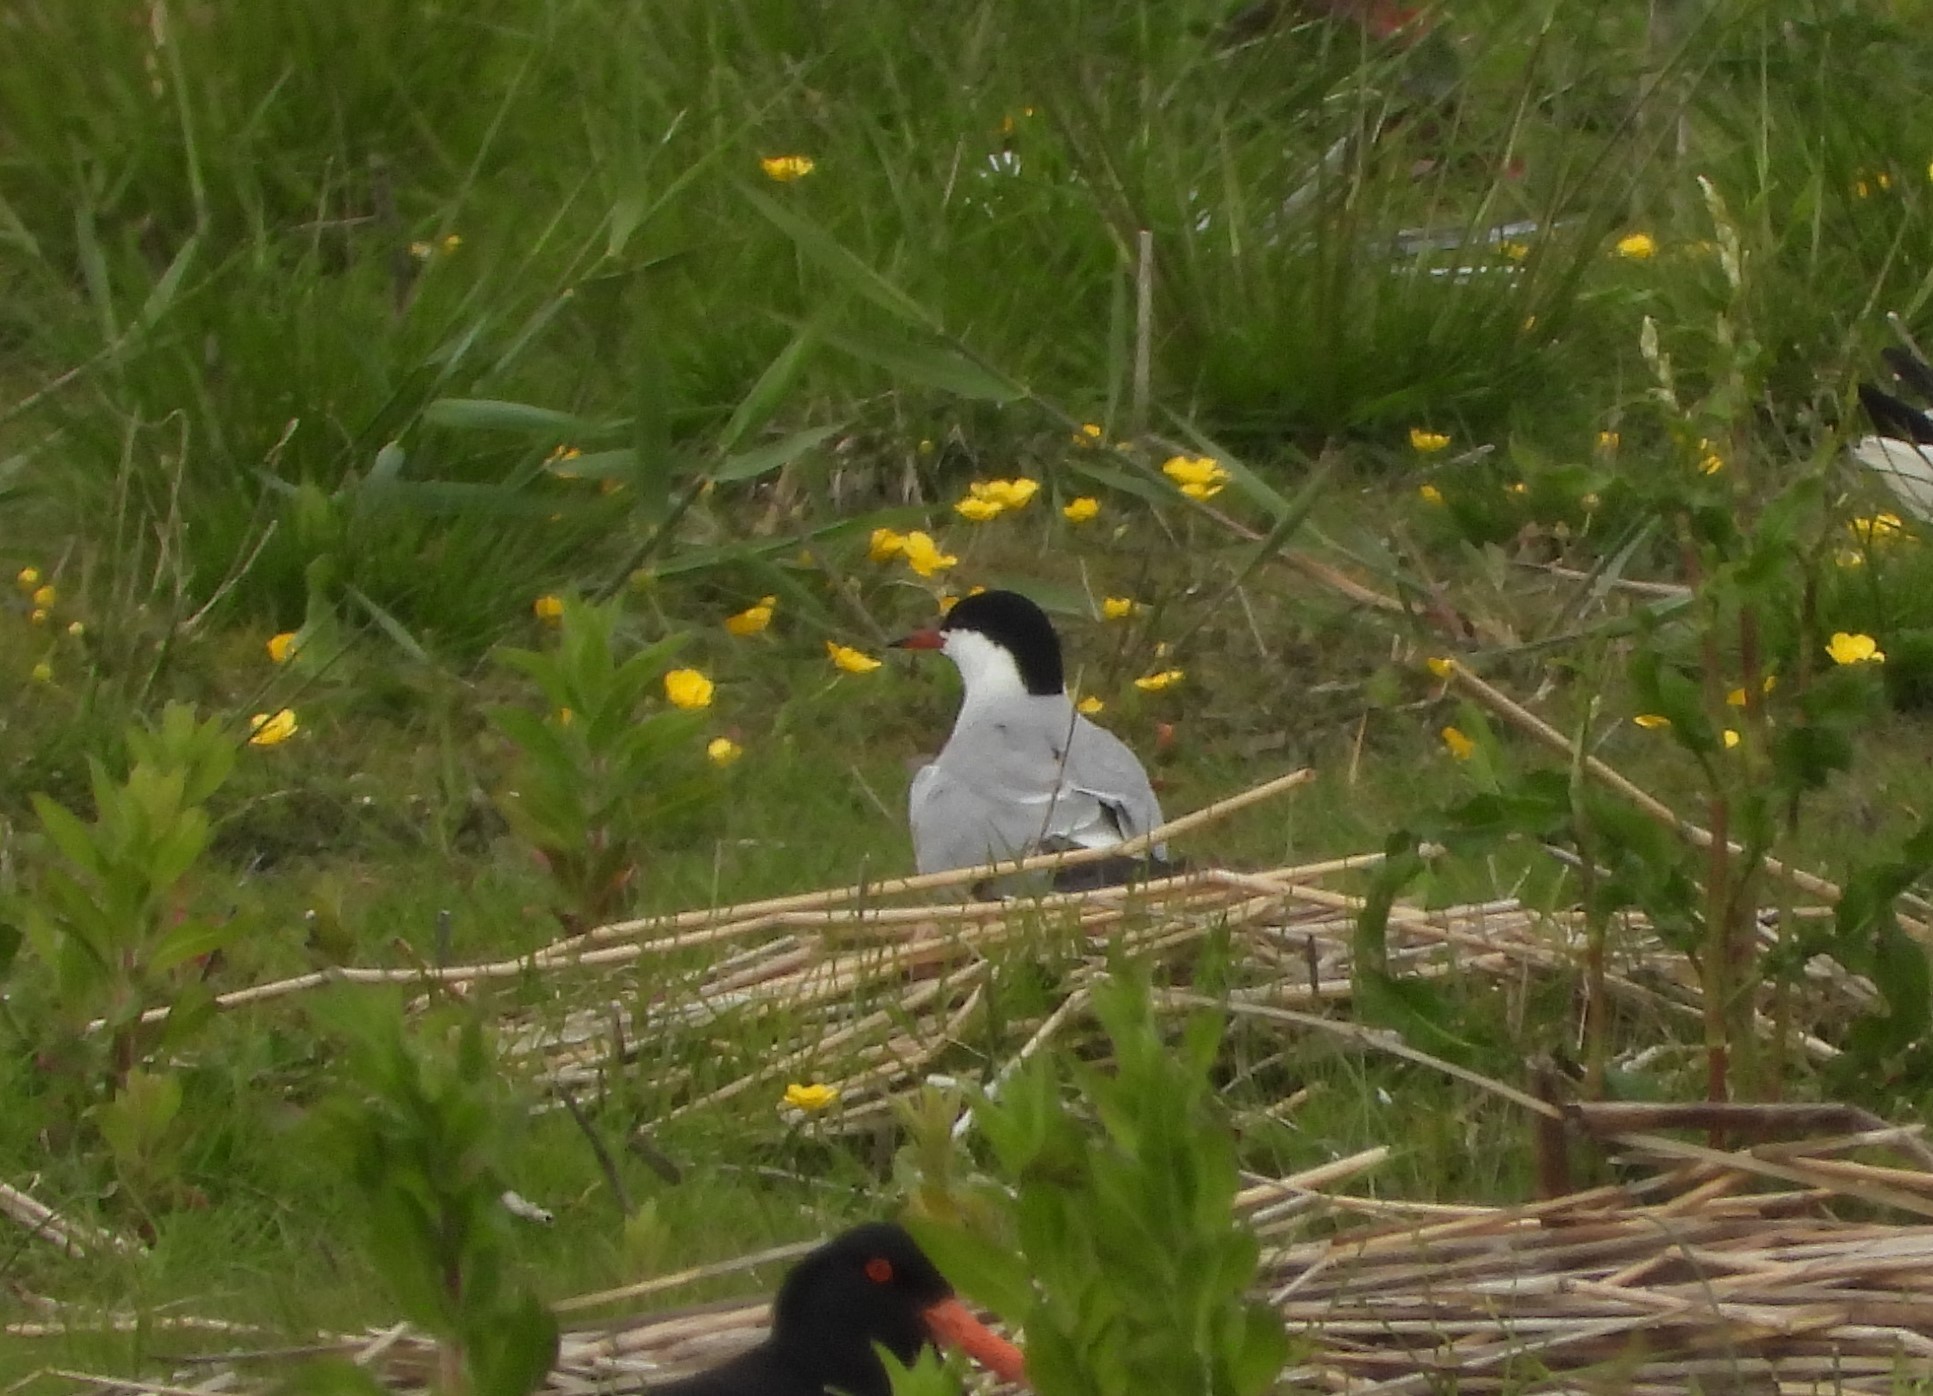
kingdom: Animalia
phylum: Chordata
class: Aves
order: Charadriiformes
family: Laridae
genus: Sterna
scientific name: Sterna hirundo
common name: Common tern
